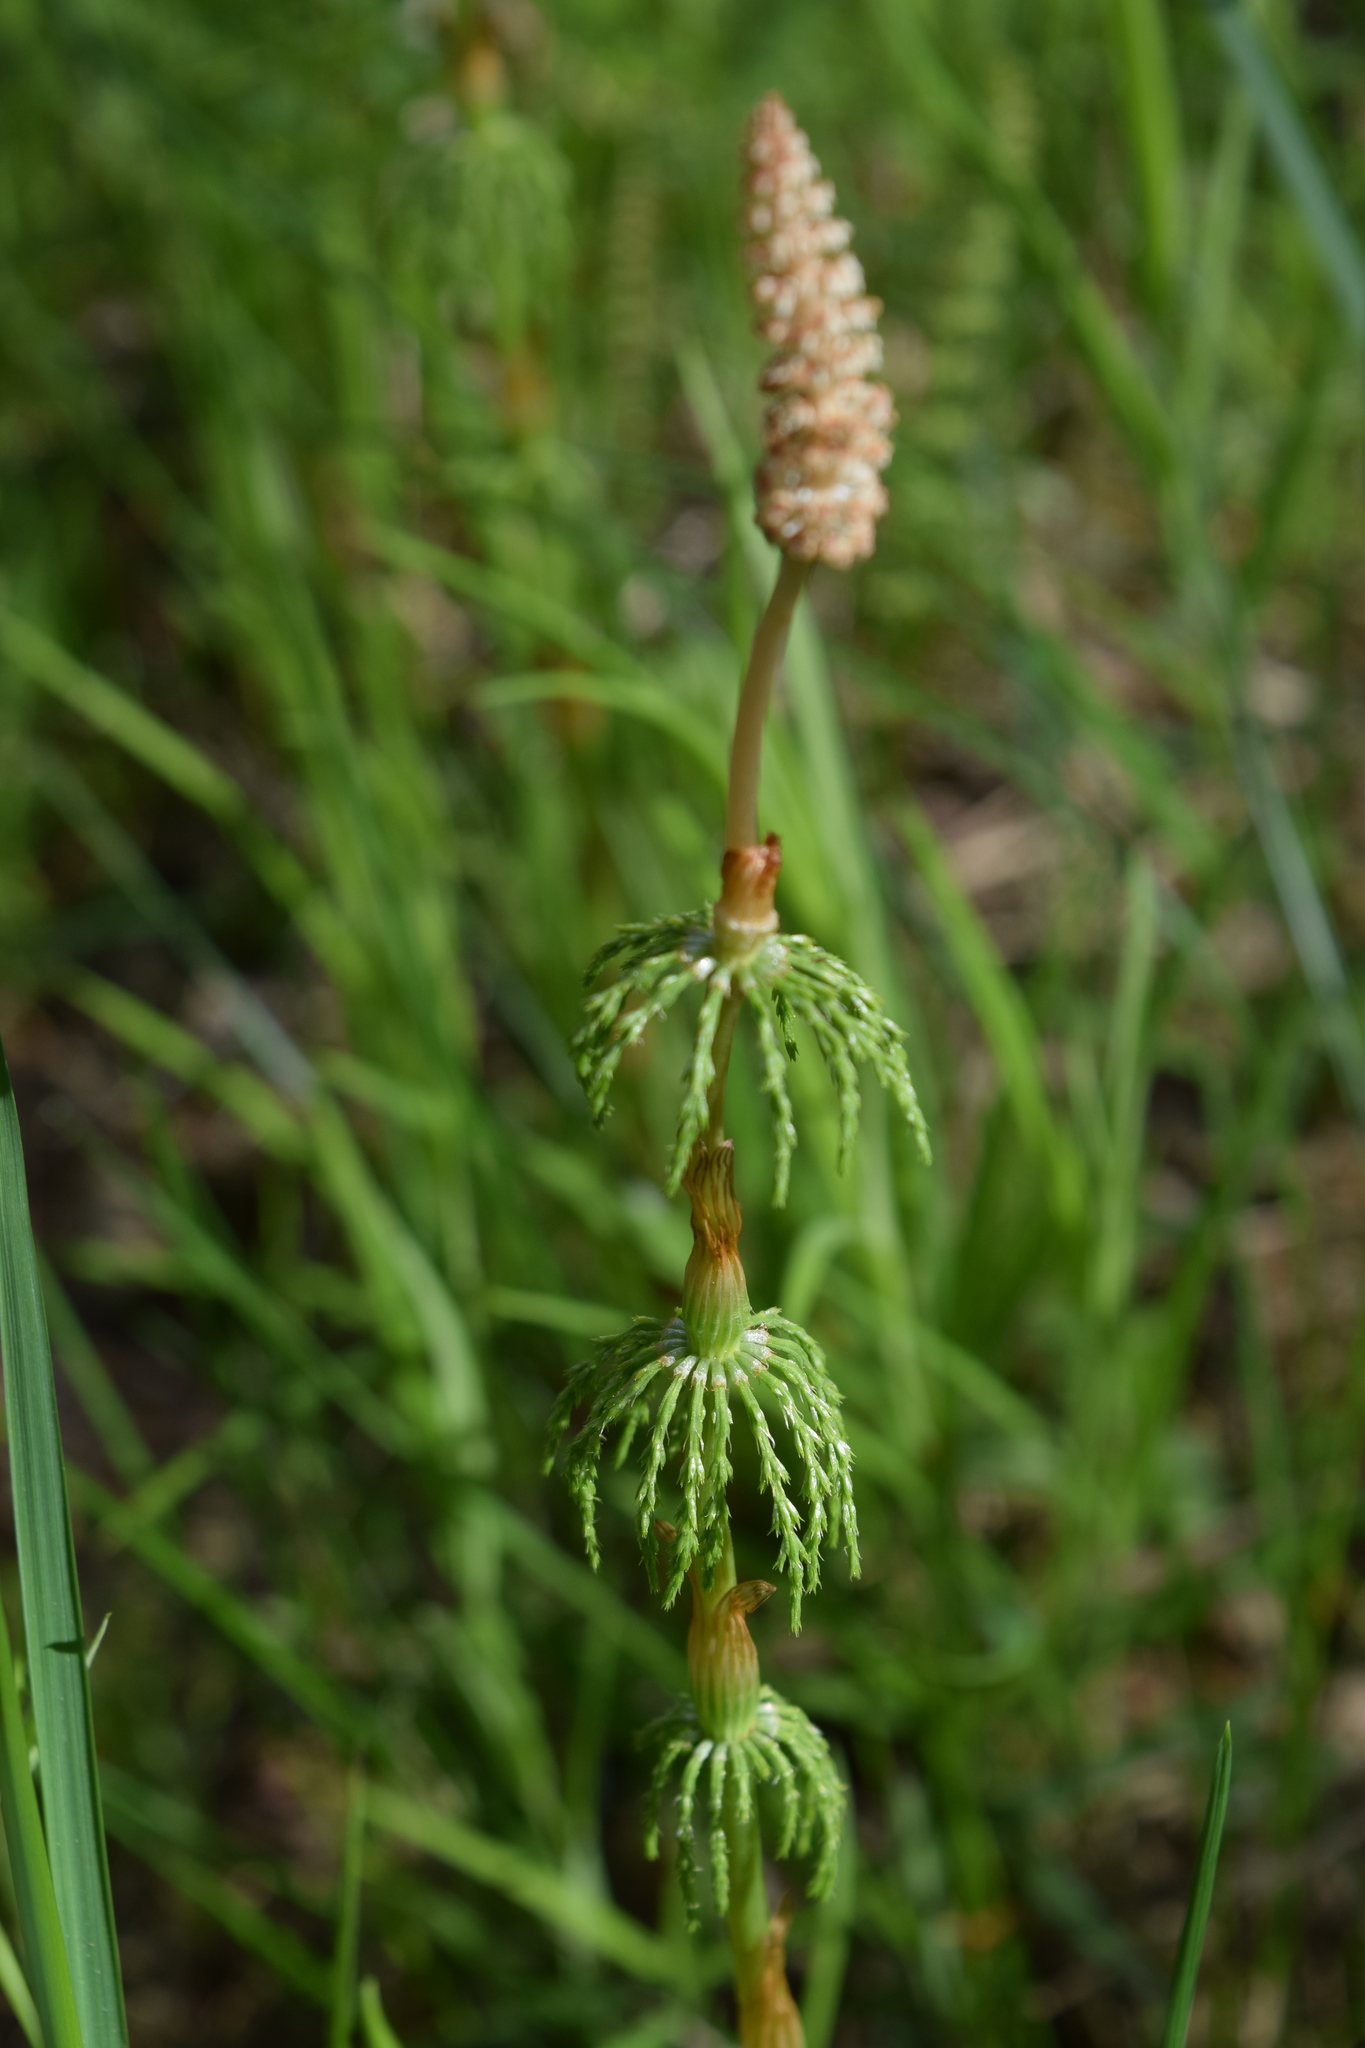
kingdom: Plantae
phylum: Tracheophyta
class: Polypodiopsida
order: Equisetales
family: Equisetaceae
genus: Equisetum
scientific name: Equisetum sylvaticum
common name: Wood horsetail
